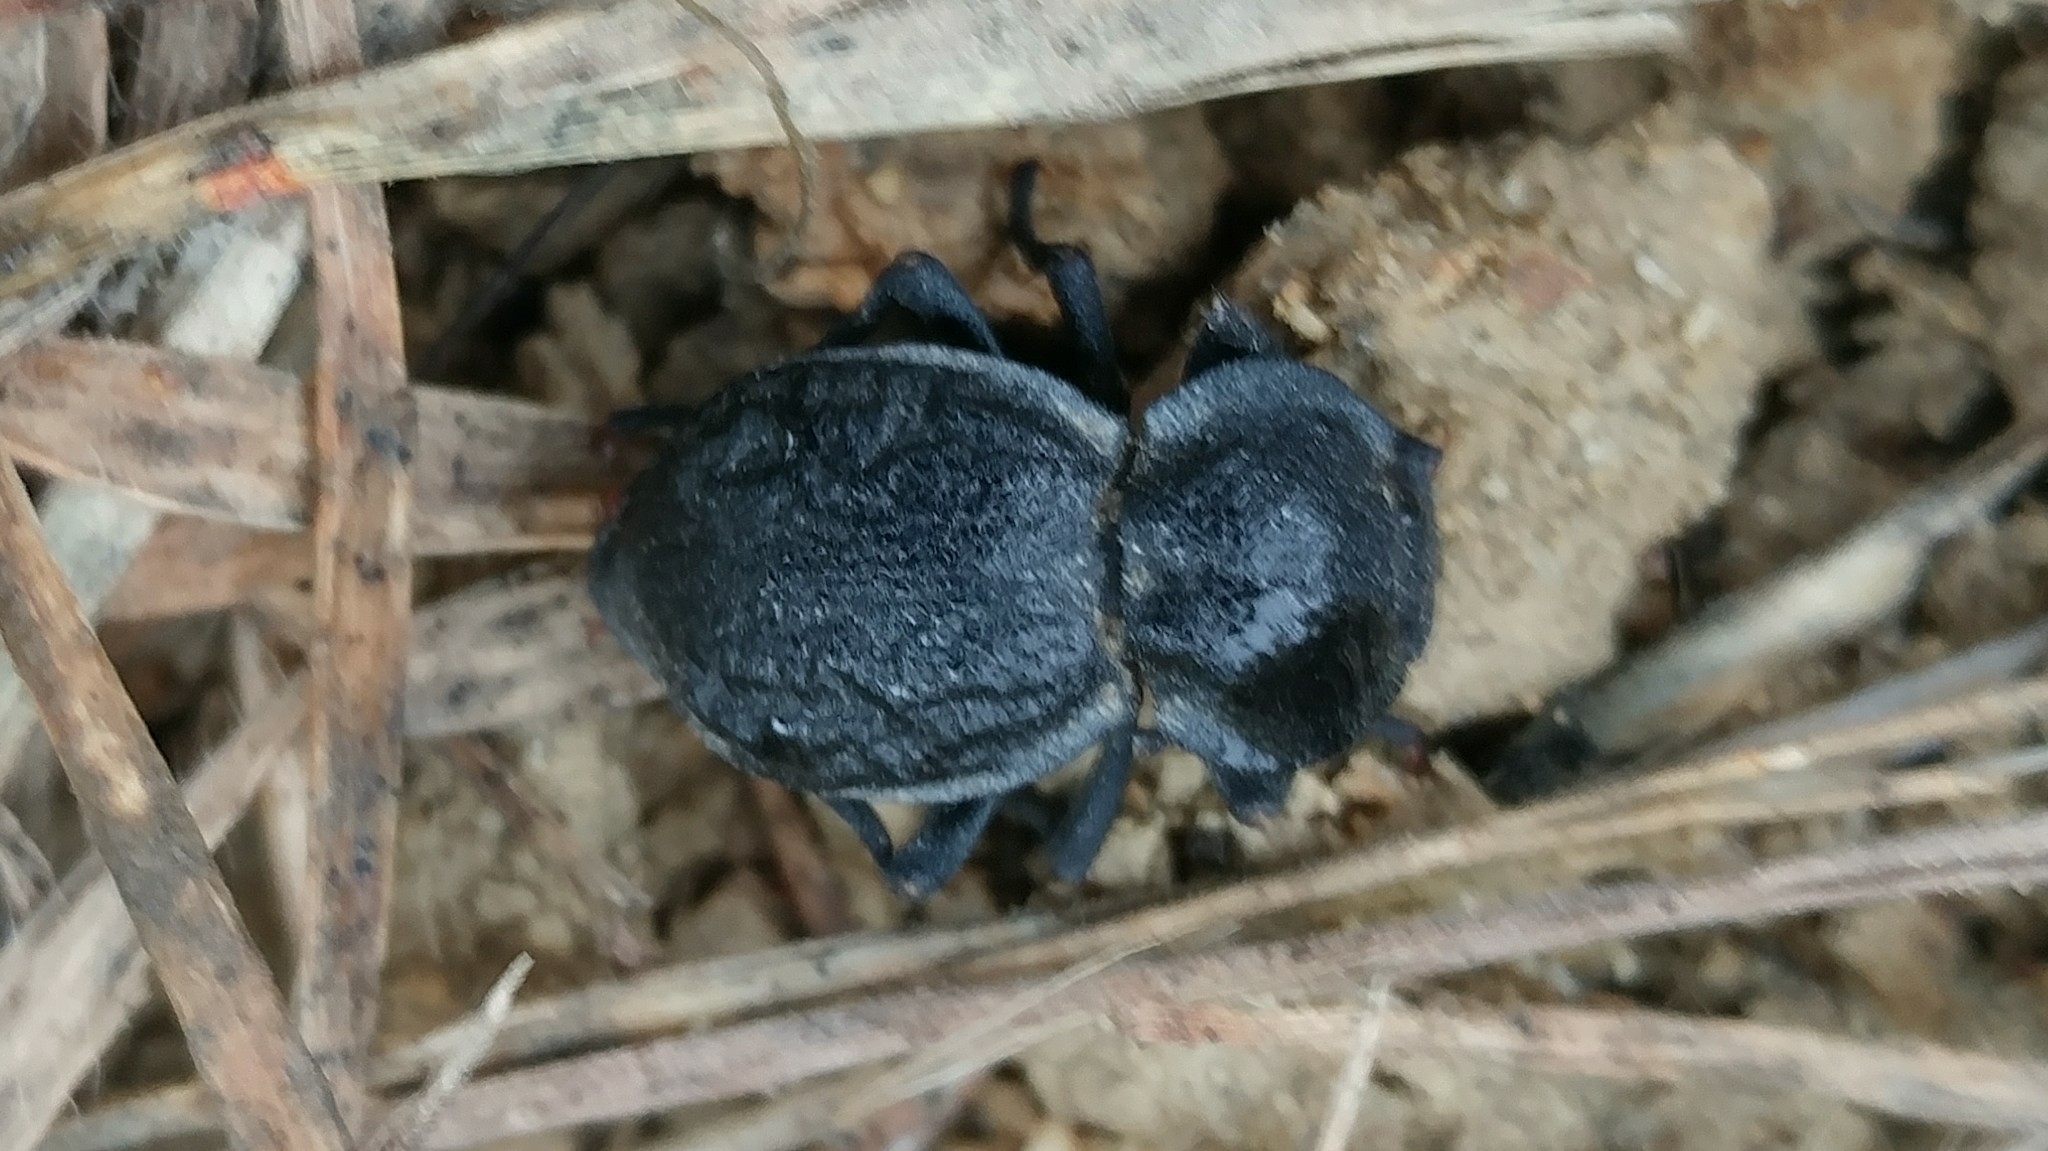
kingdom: Animalia
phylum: Arthropoda
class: Insecta
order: Coleoptera
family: Tenebrionidae
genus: Microschatia
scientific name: Microschatia inaequalis
